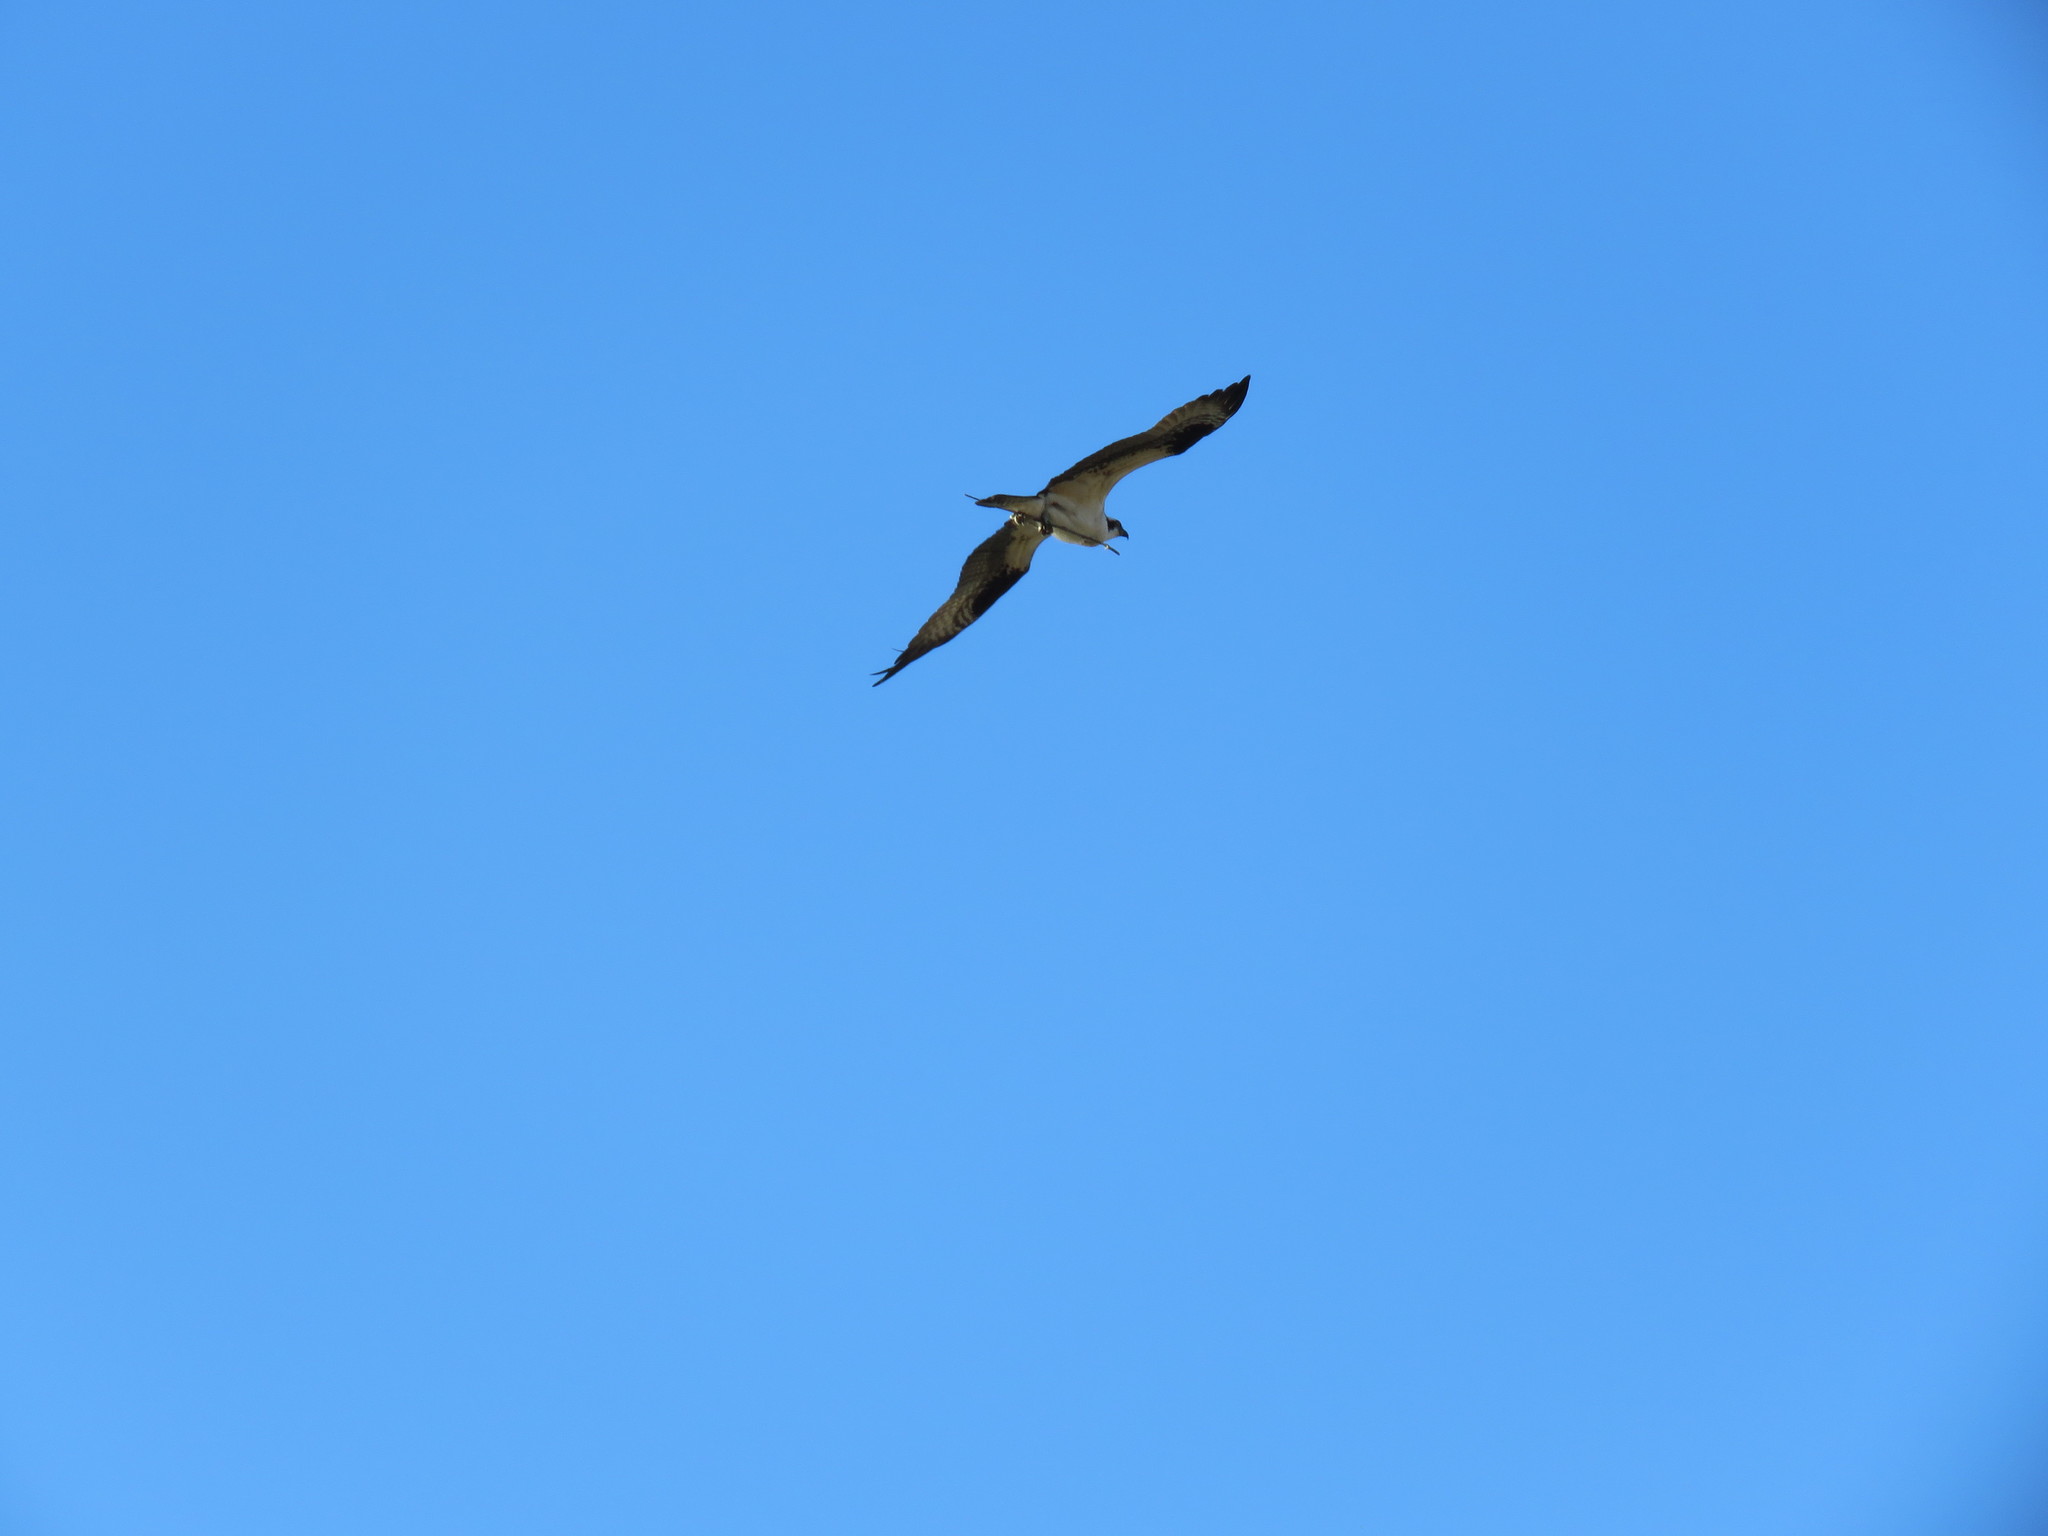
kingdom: Animalia
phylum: Chordata
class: Aves
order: Accipitriformes
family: Pandionidae
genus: Pandion
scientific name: Pandion haliaetus
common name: Osprey
